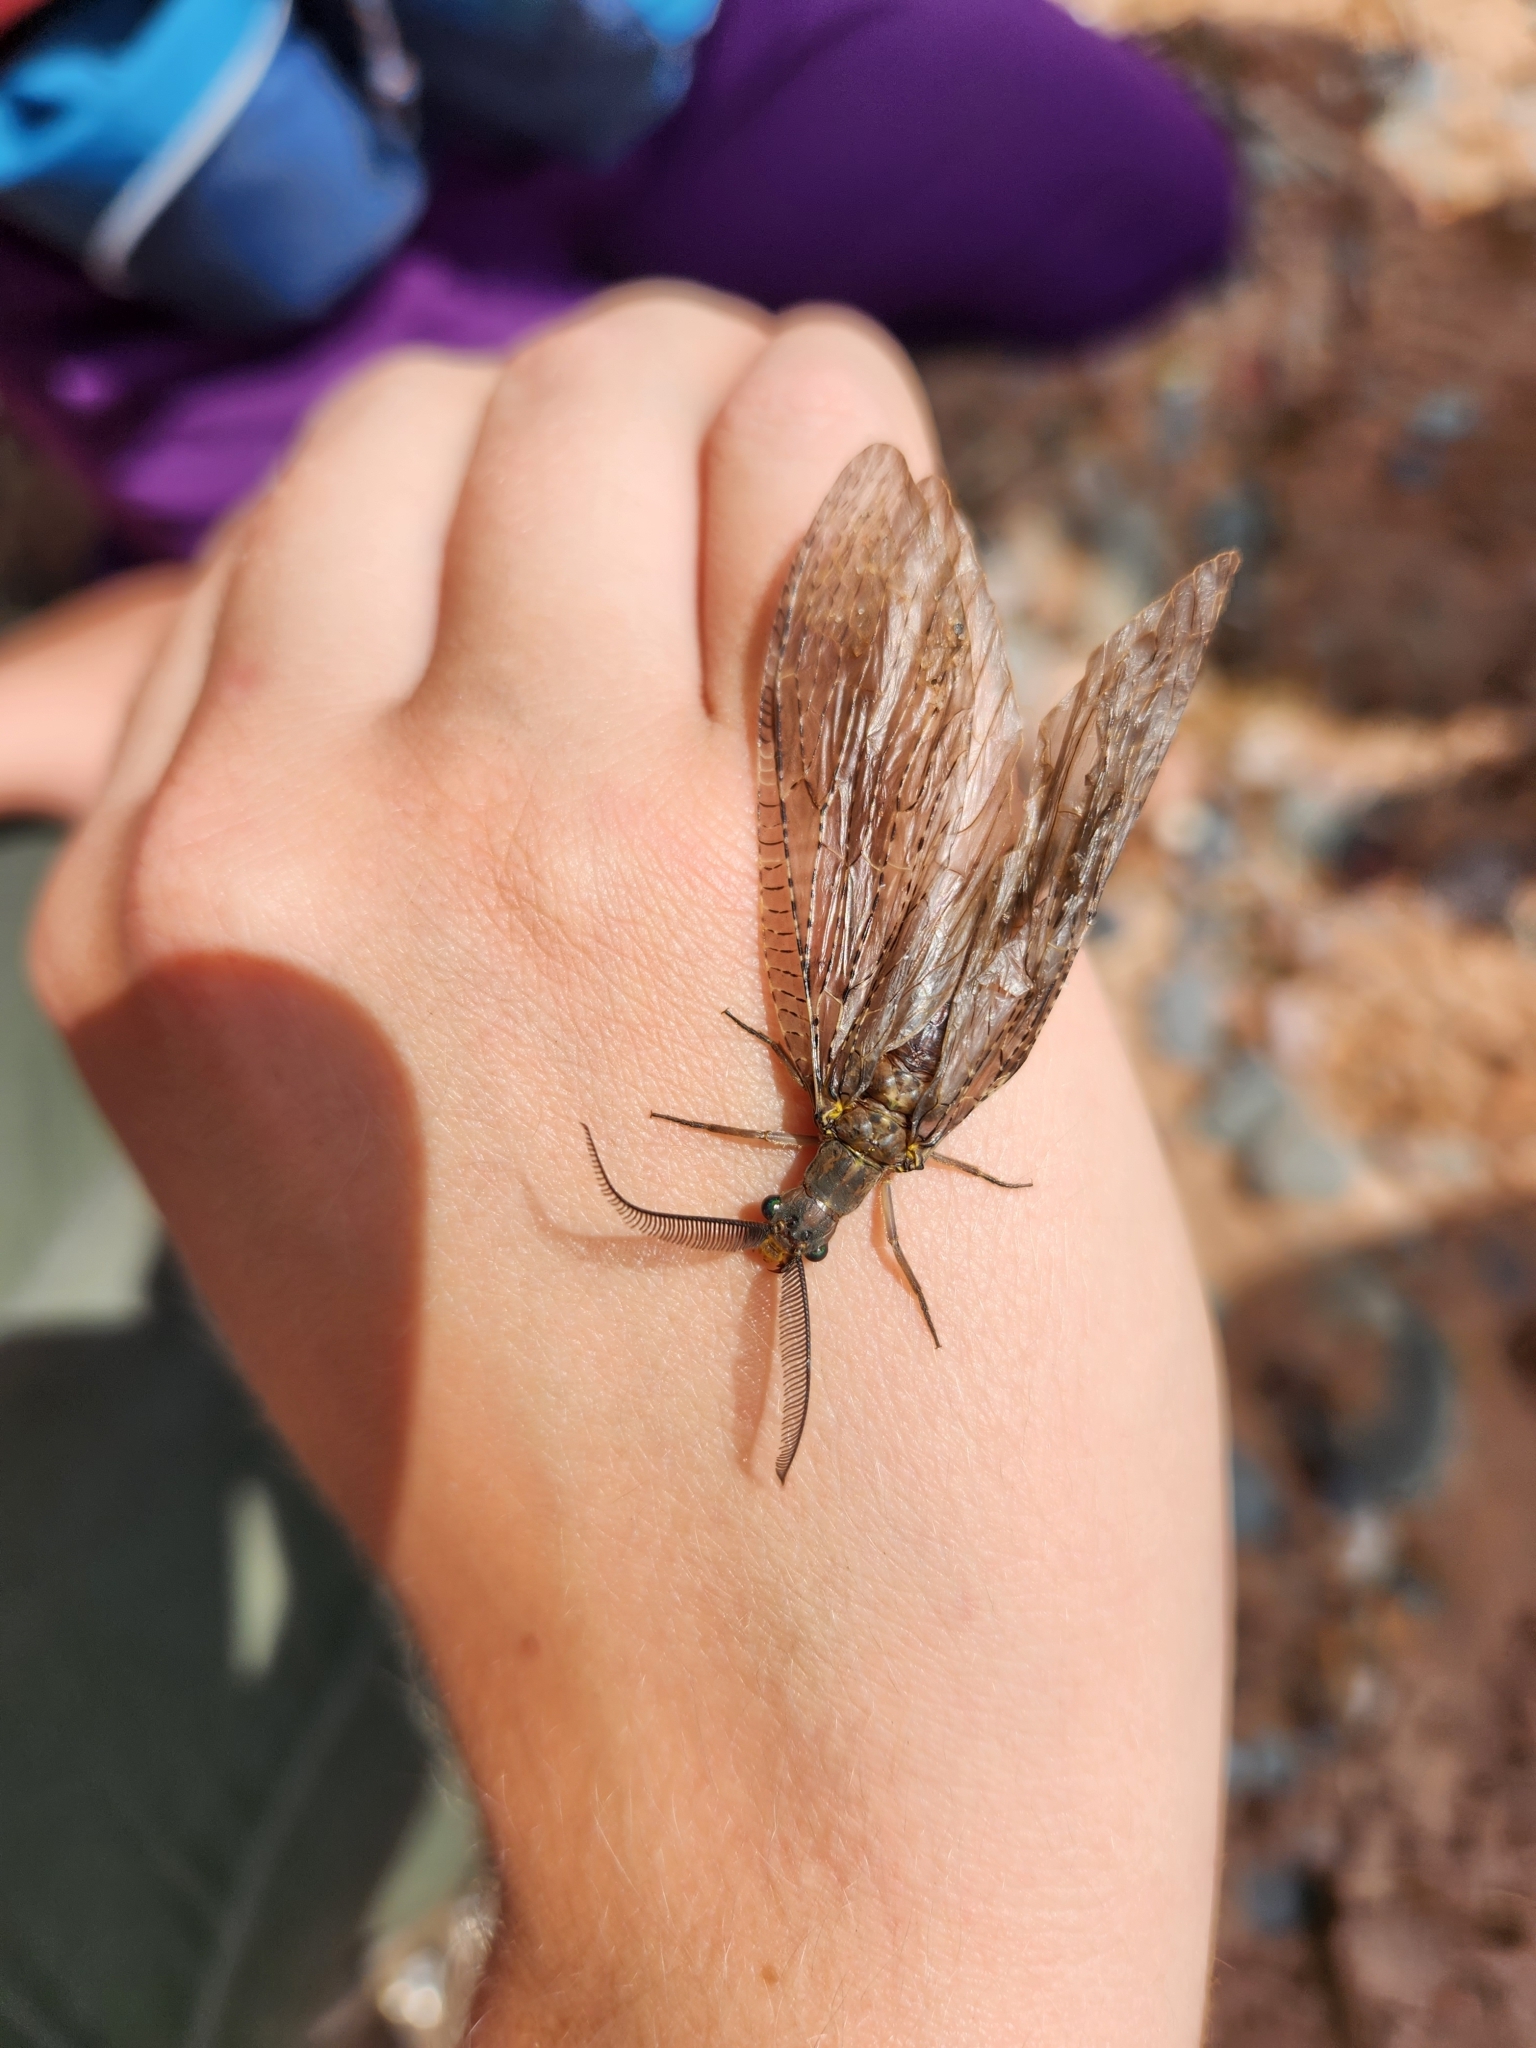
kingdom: Animalia
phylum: Arthropoda
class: Insecta
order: Megaloptera
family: Corydalidae
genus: Chauliodes
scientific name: Chauliodes pectinicornis
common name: Summer fishfly
